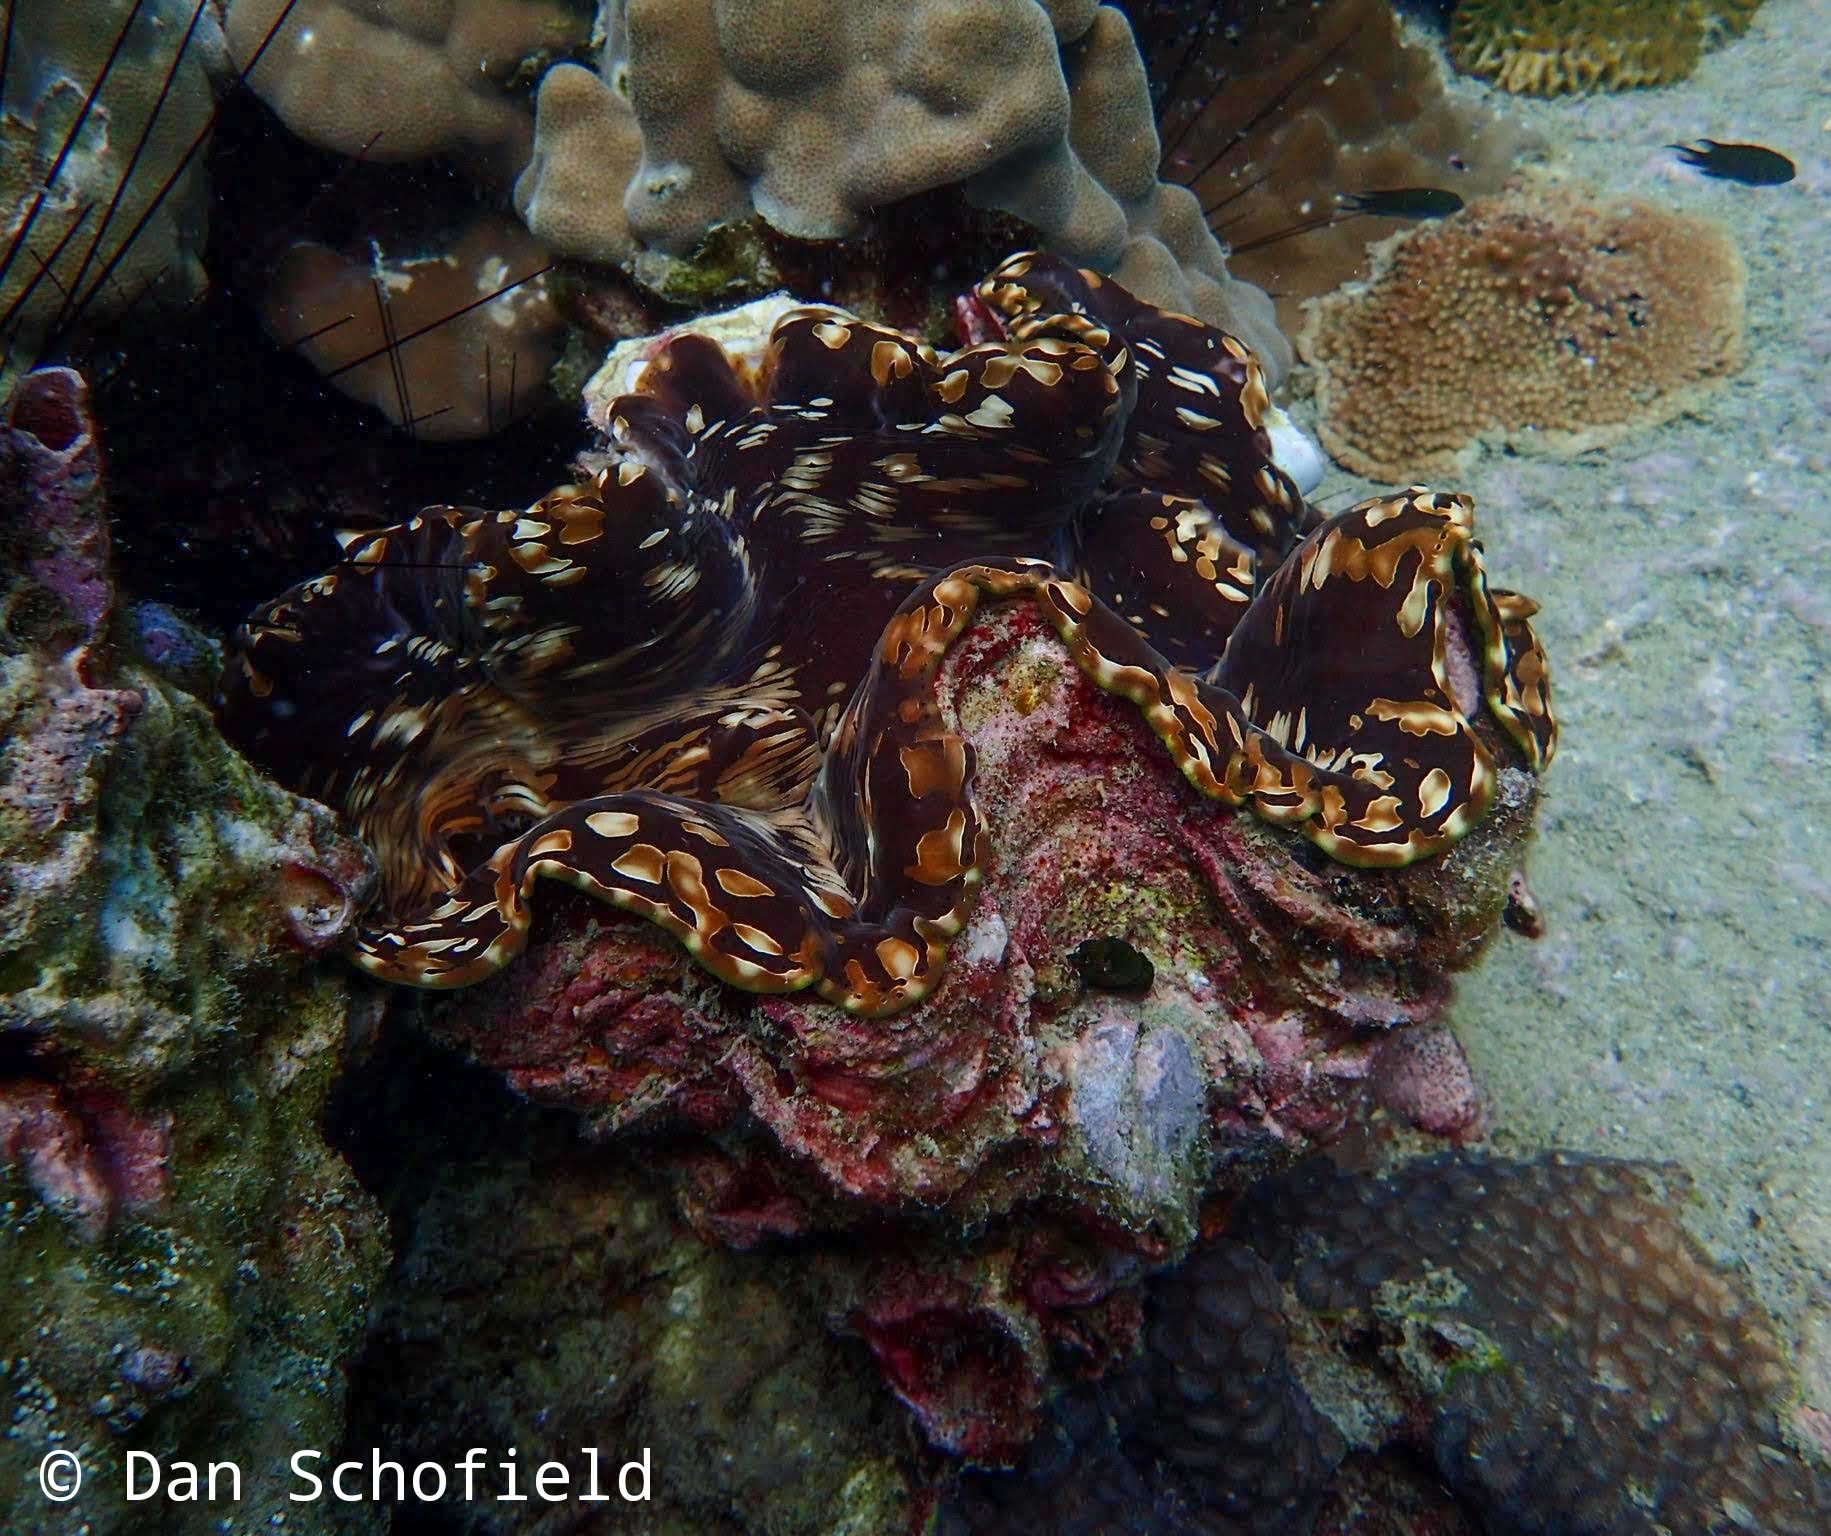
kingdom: Animalia
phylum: Mollusca
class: Bivalvia
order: Cardiida
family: Cardiidae
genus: Tridacna
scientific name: Tridacna squamosa
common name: Fluted clam
